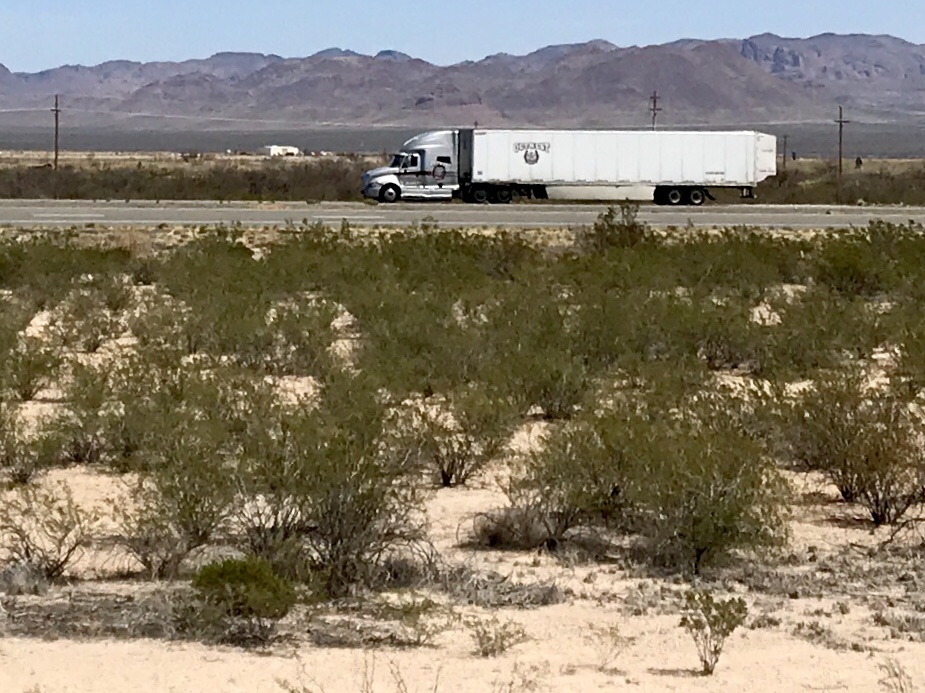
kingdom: Plantae
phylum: Tracheophyta
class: Magnoliopsida
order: Zygophyllales
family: Zygophyllaceae
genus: Larrea
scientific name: Larrea tridentata
